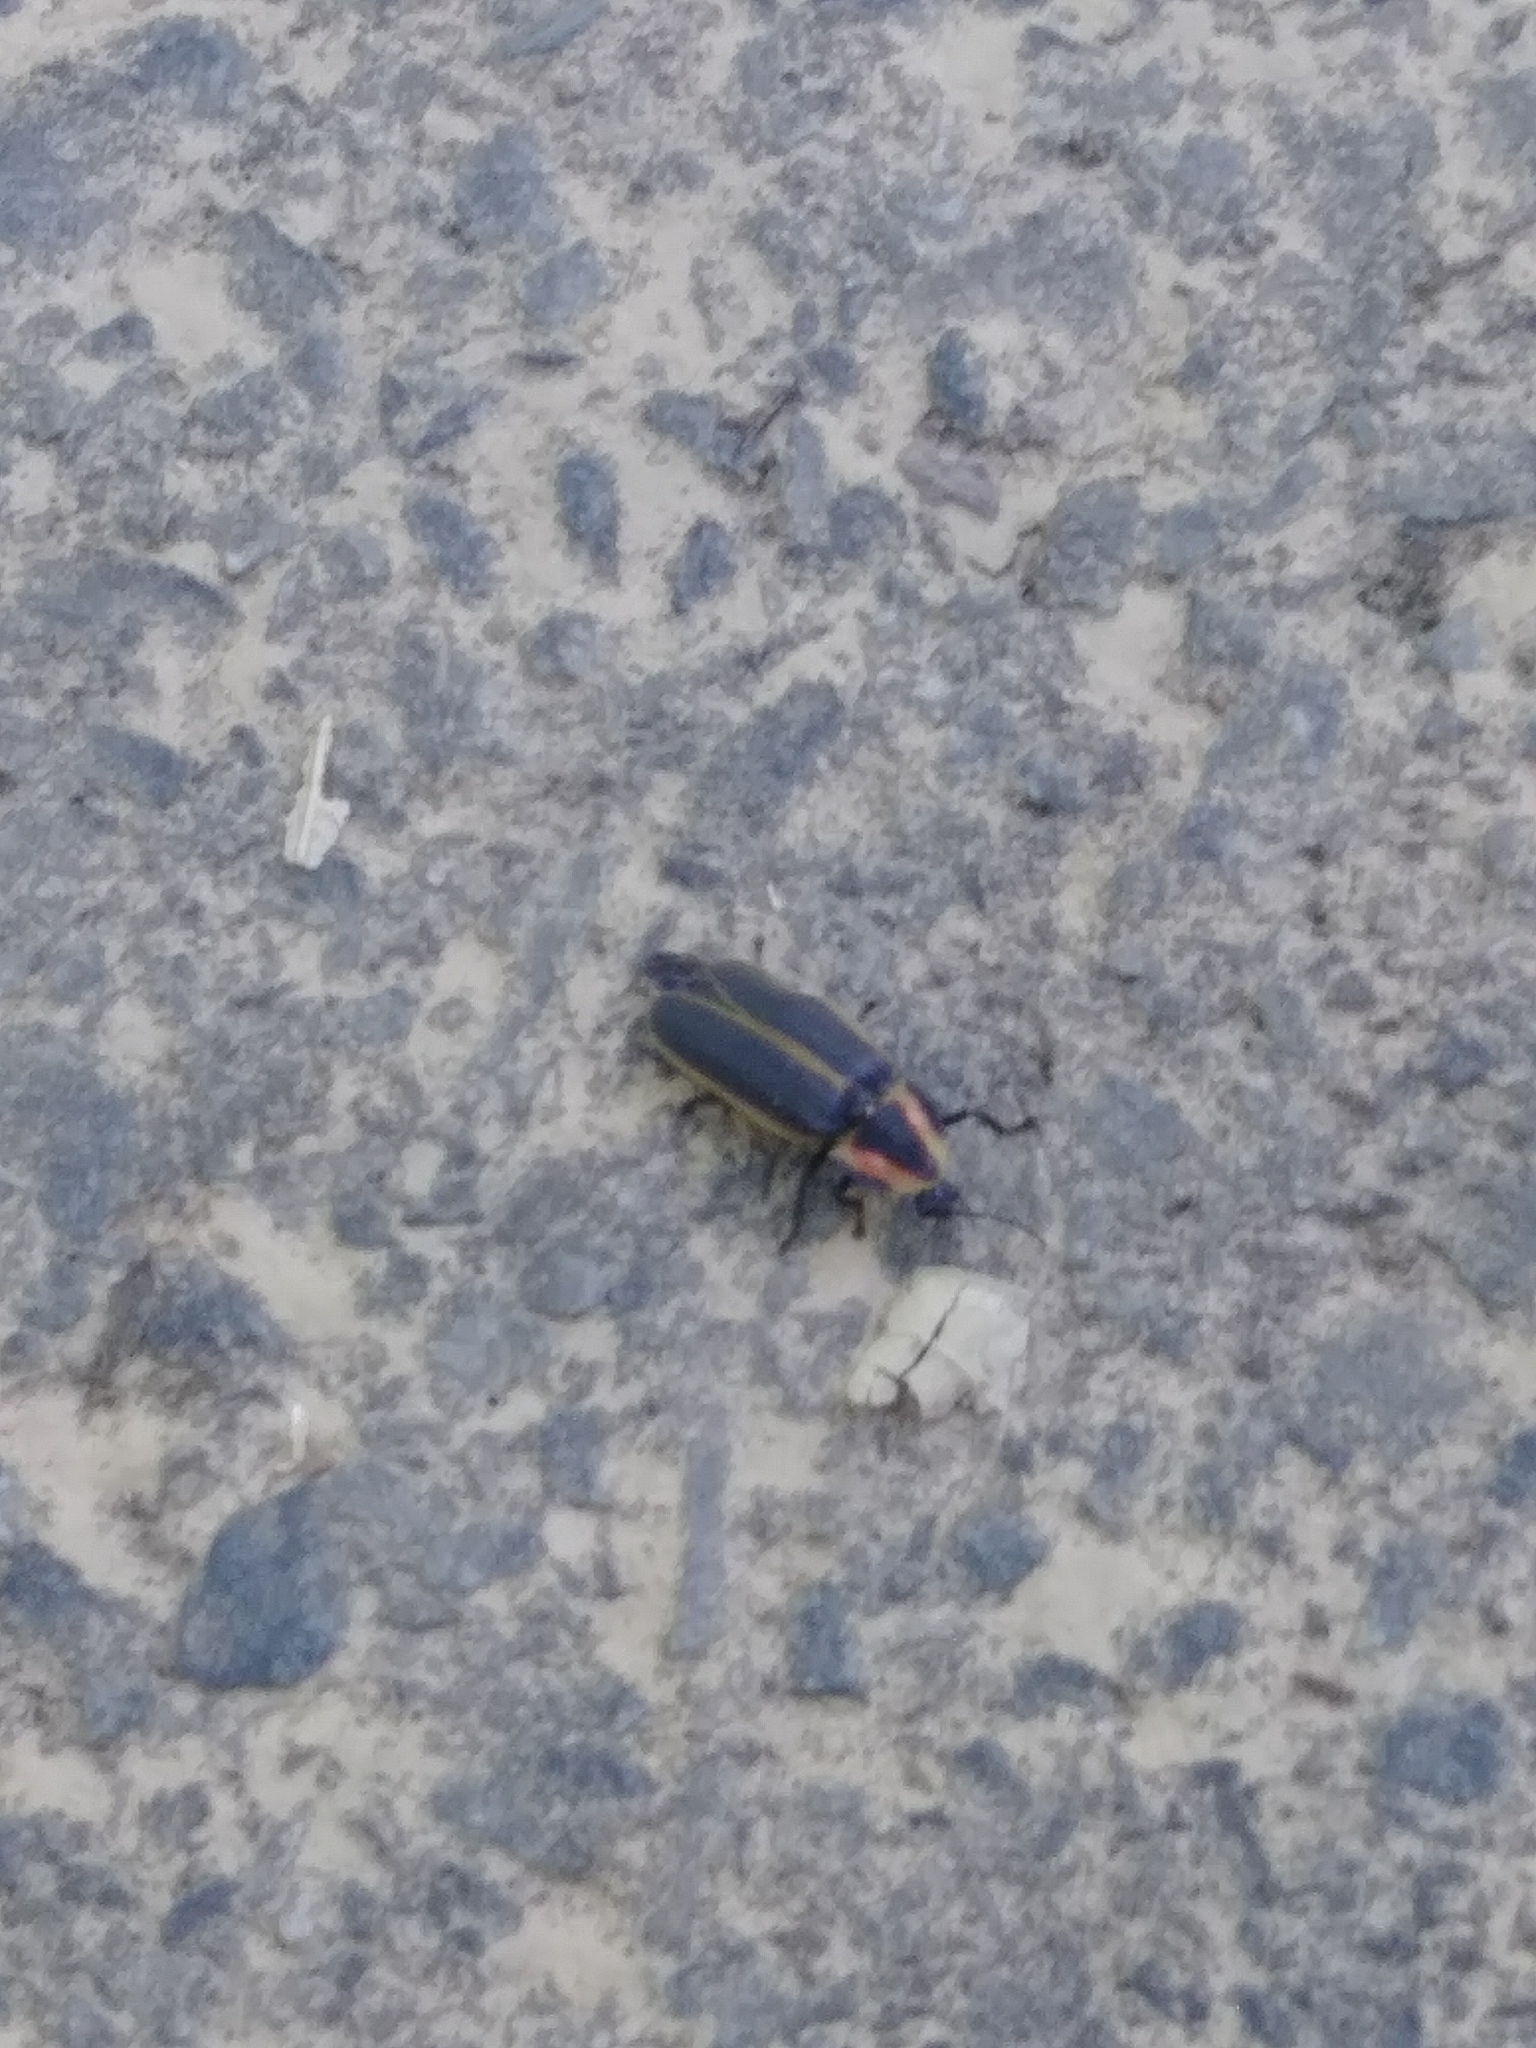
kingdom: Animalia
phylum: Arthropoda
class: Insecta
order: Coleoptera
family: Lampyridae
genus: Pyractomena
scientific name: Pyractomena borealis
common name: Northern firefly
